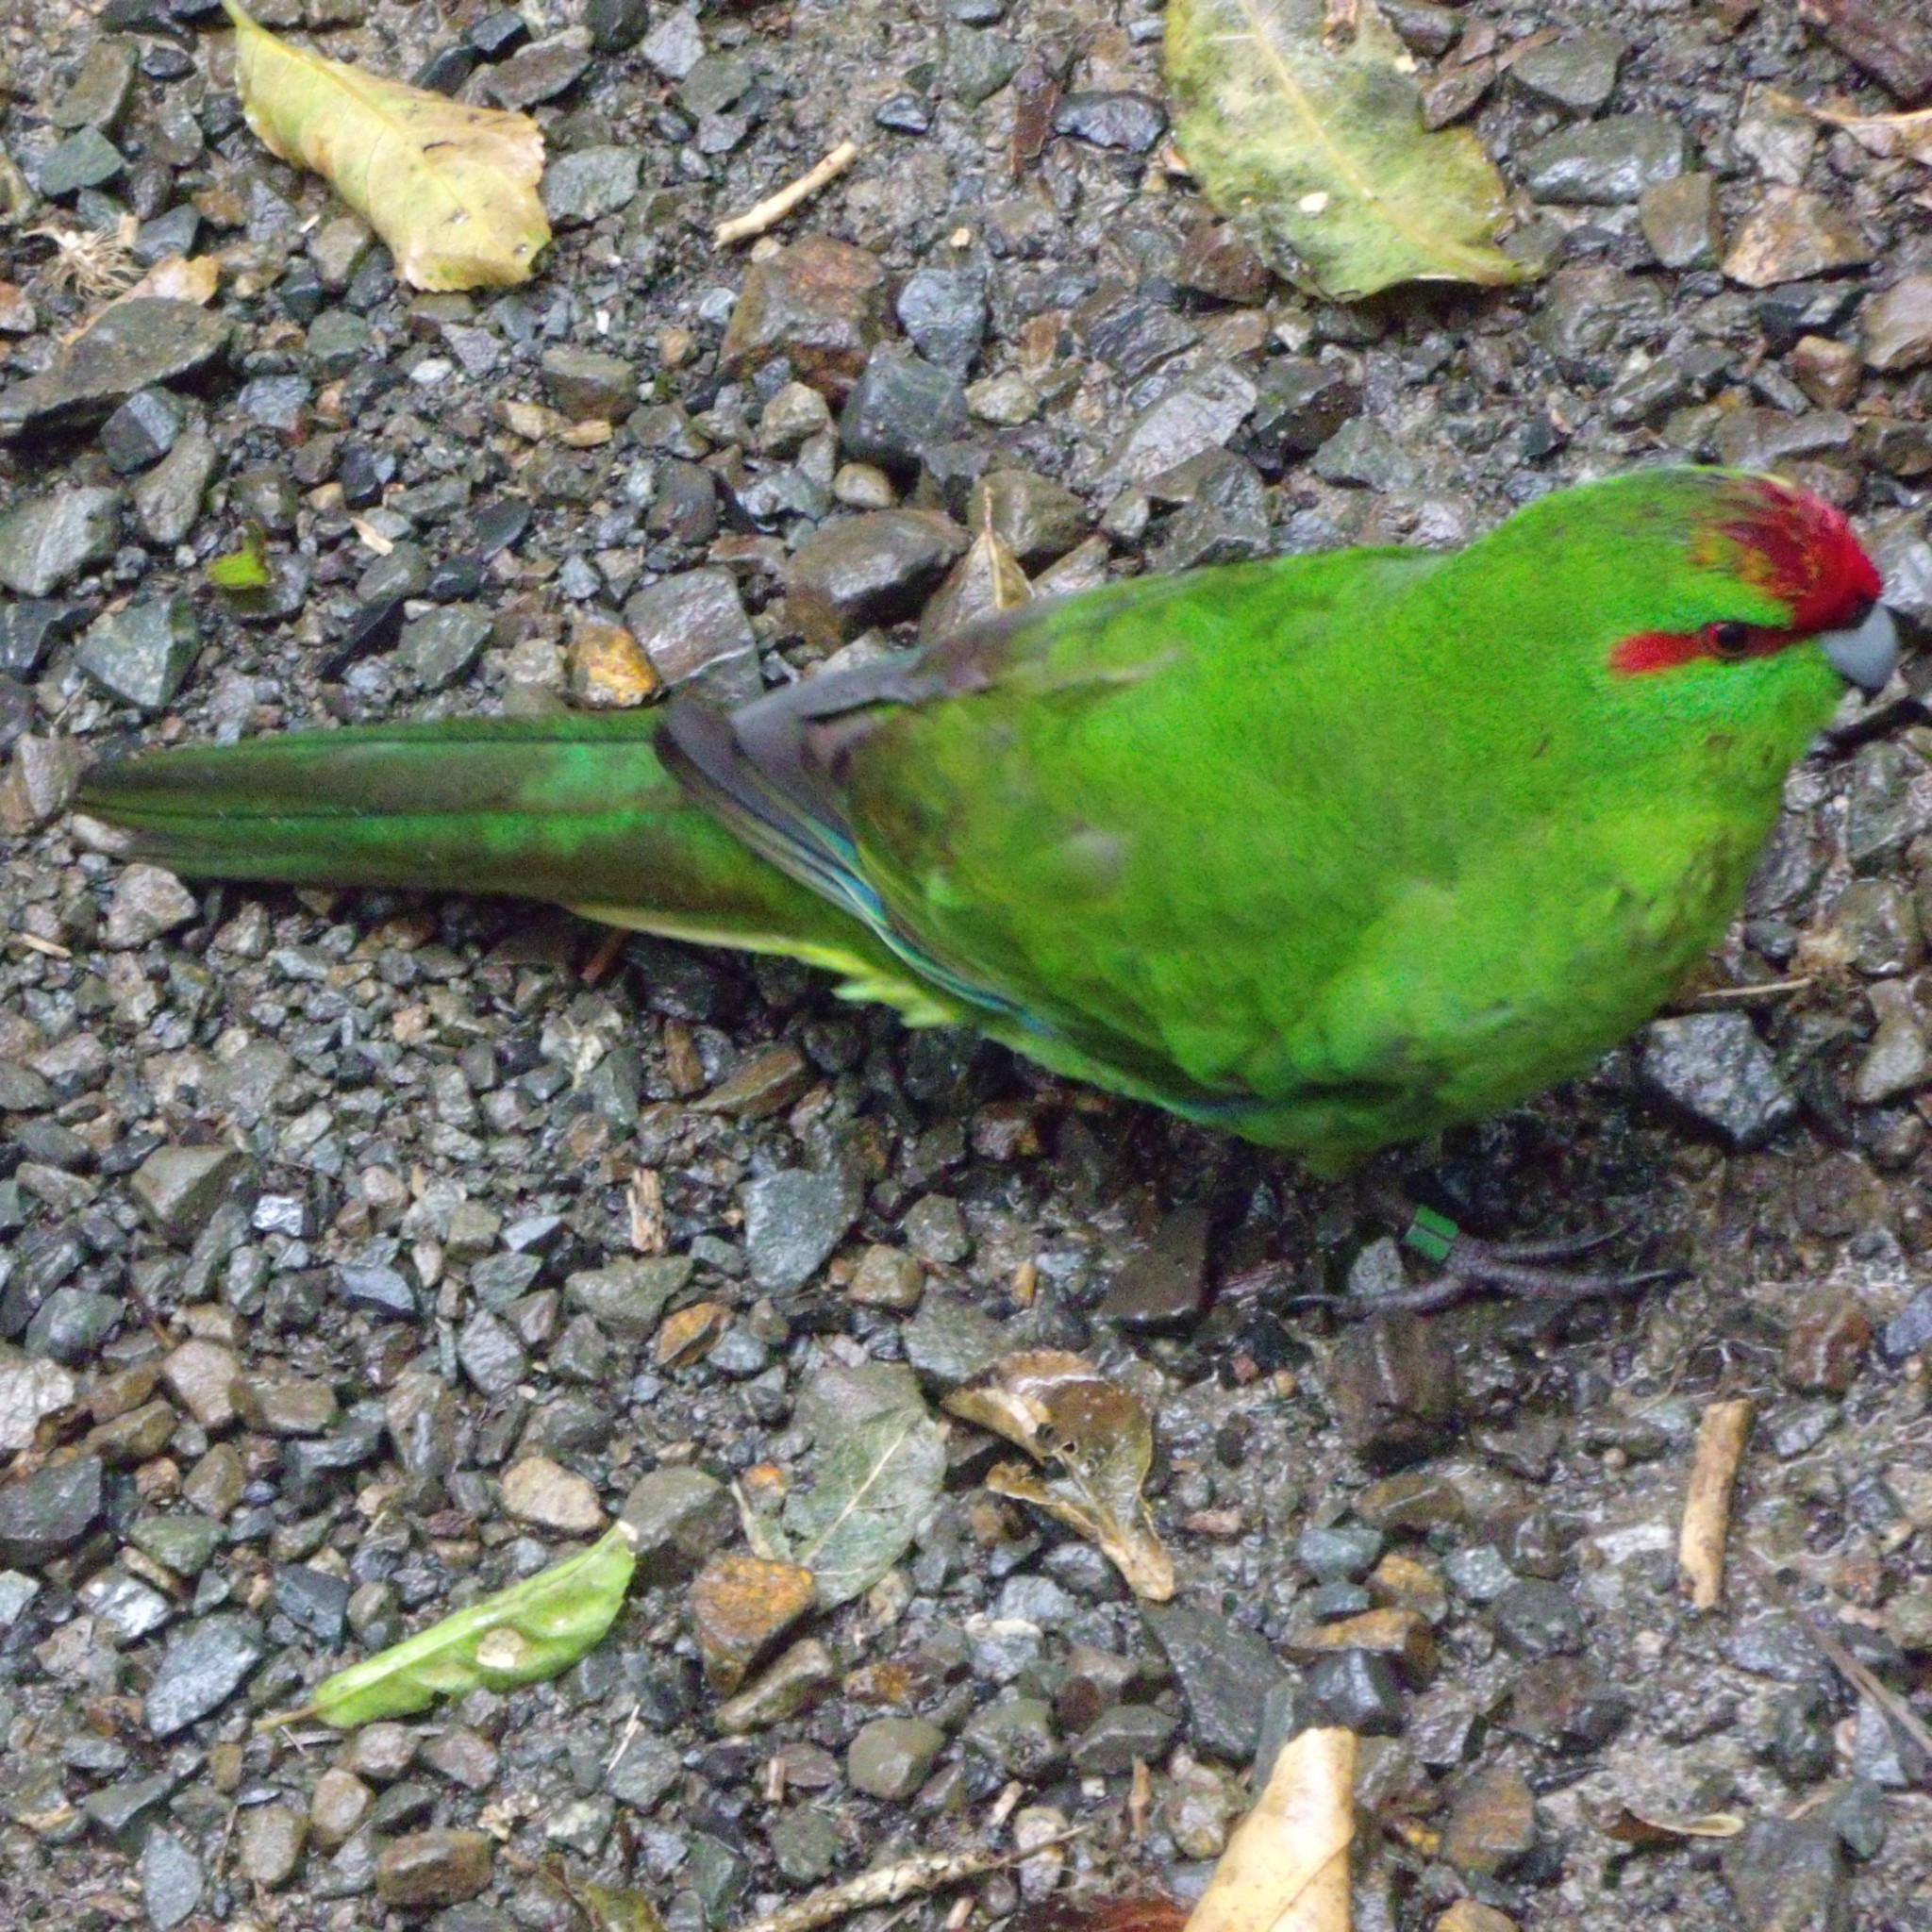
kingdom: Animalia
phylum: Chordata
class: Aves
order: Psittaciformes
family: Psittacidae
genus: Cyanoramphus
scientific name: Cyanoramphus novaezelandiae
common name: Red-fronted parakeet
